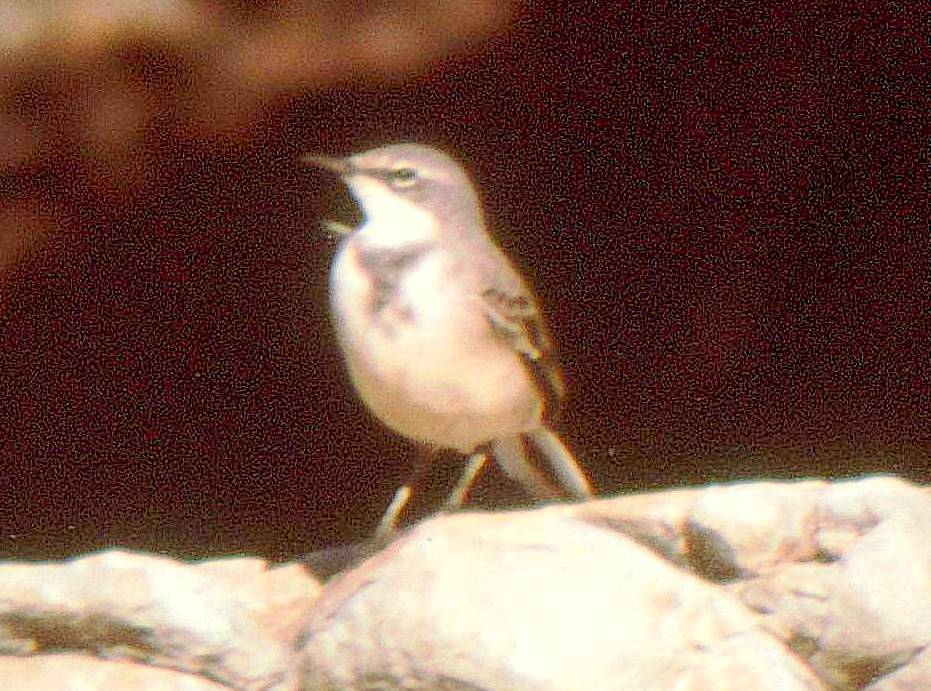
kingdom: Animalia
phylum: Chordata
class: Aves
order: Passeriformes
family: Motacillidae
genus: Motacilla
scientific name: Motacilla capensis
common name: Cape wagtail
